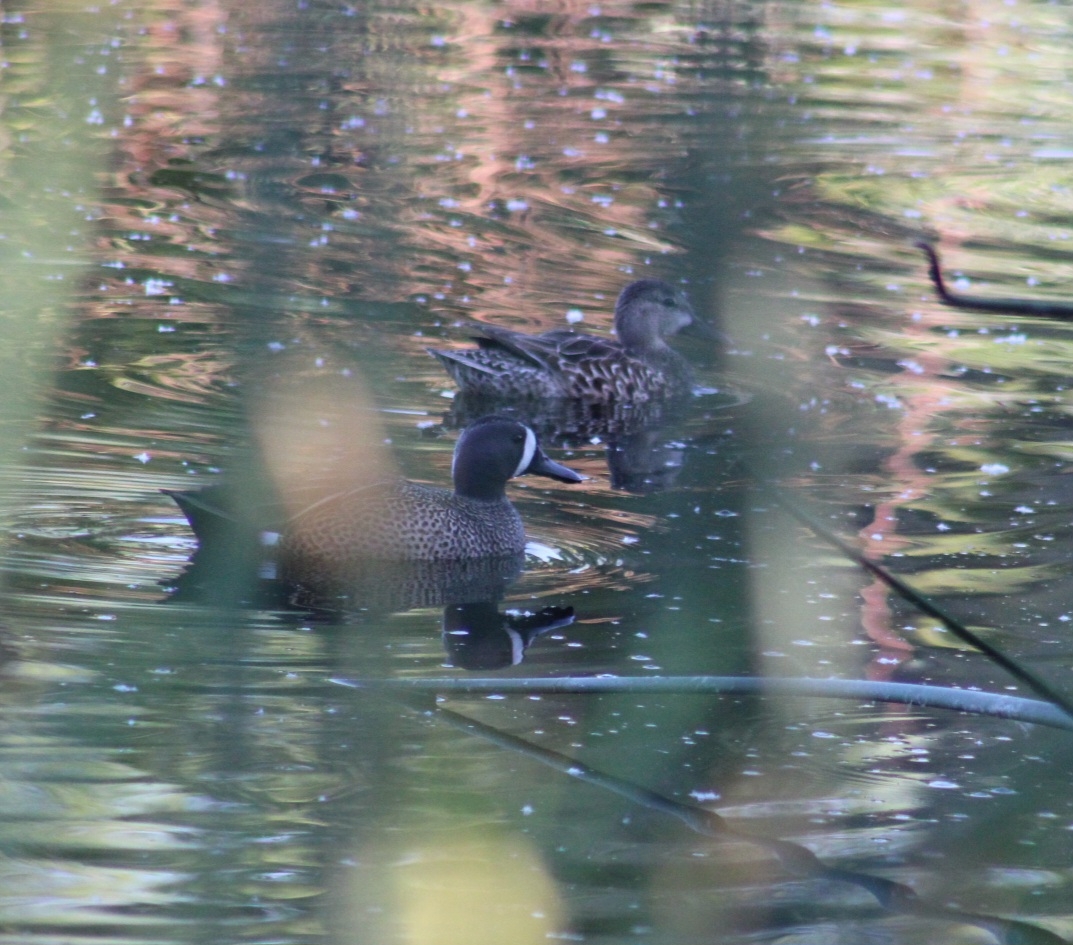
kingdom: Animalia
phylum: Chordata
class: Aves
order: Anseriformes
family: Anatidae
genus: Spatula
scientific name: Spatula discors
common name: Blue-winged teal
